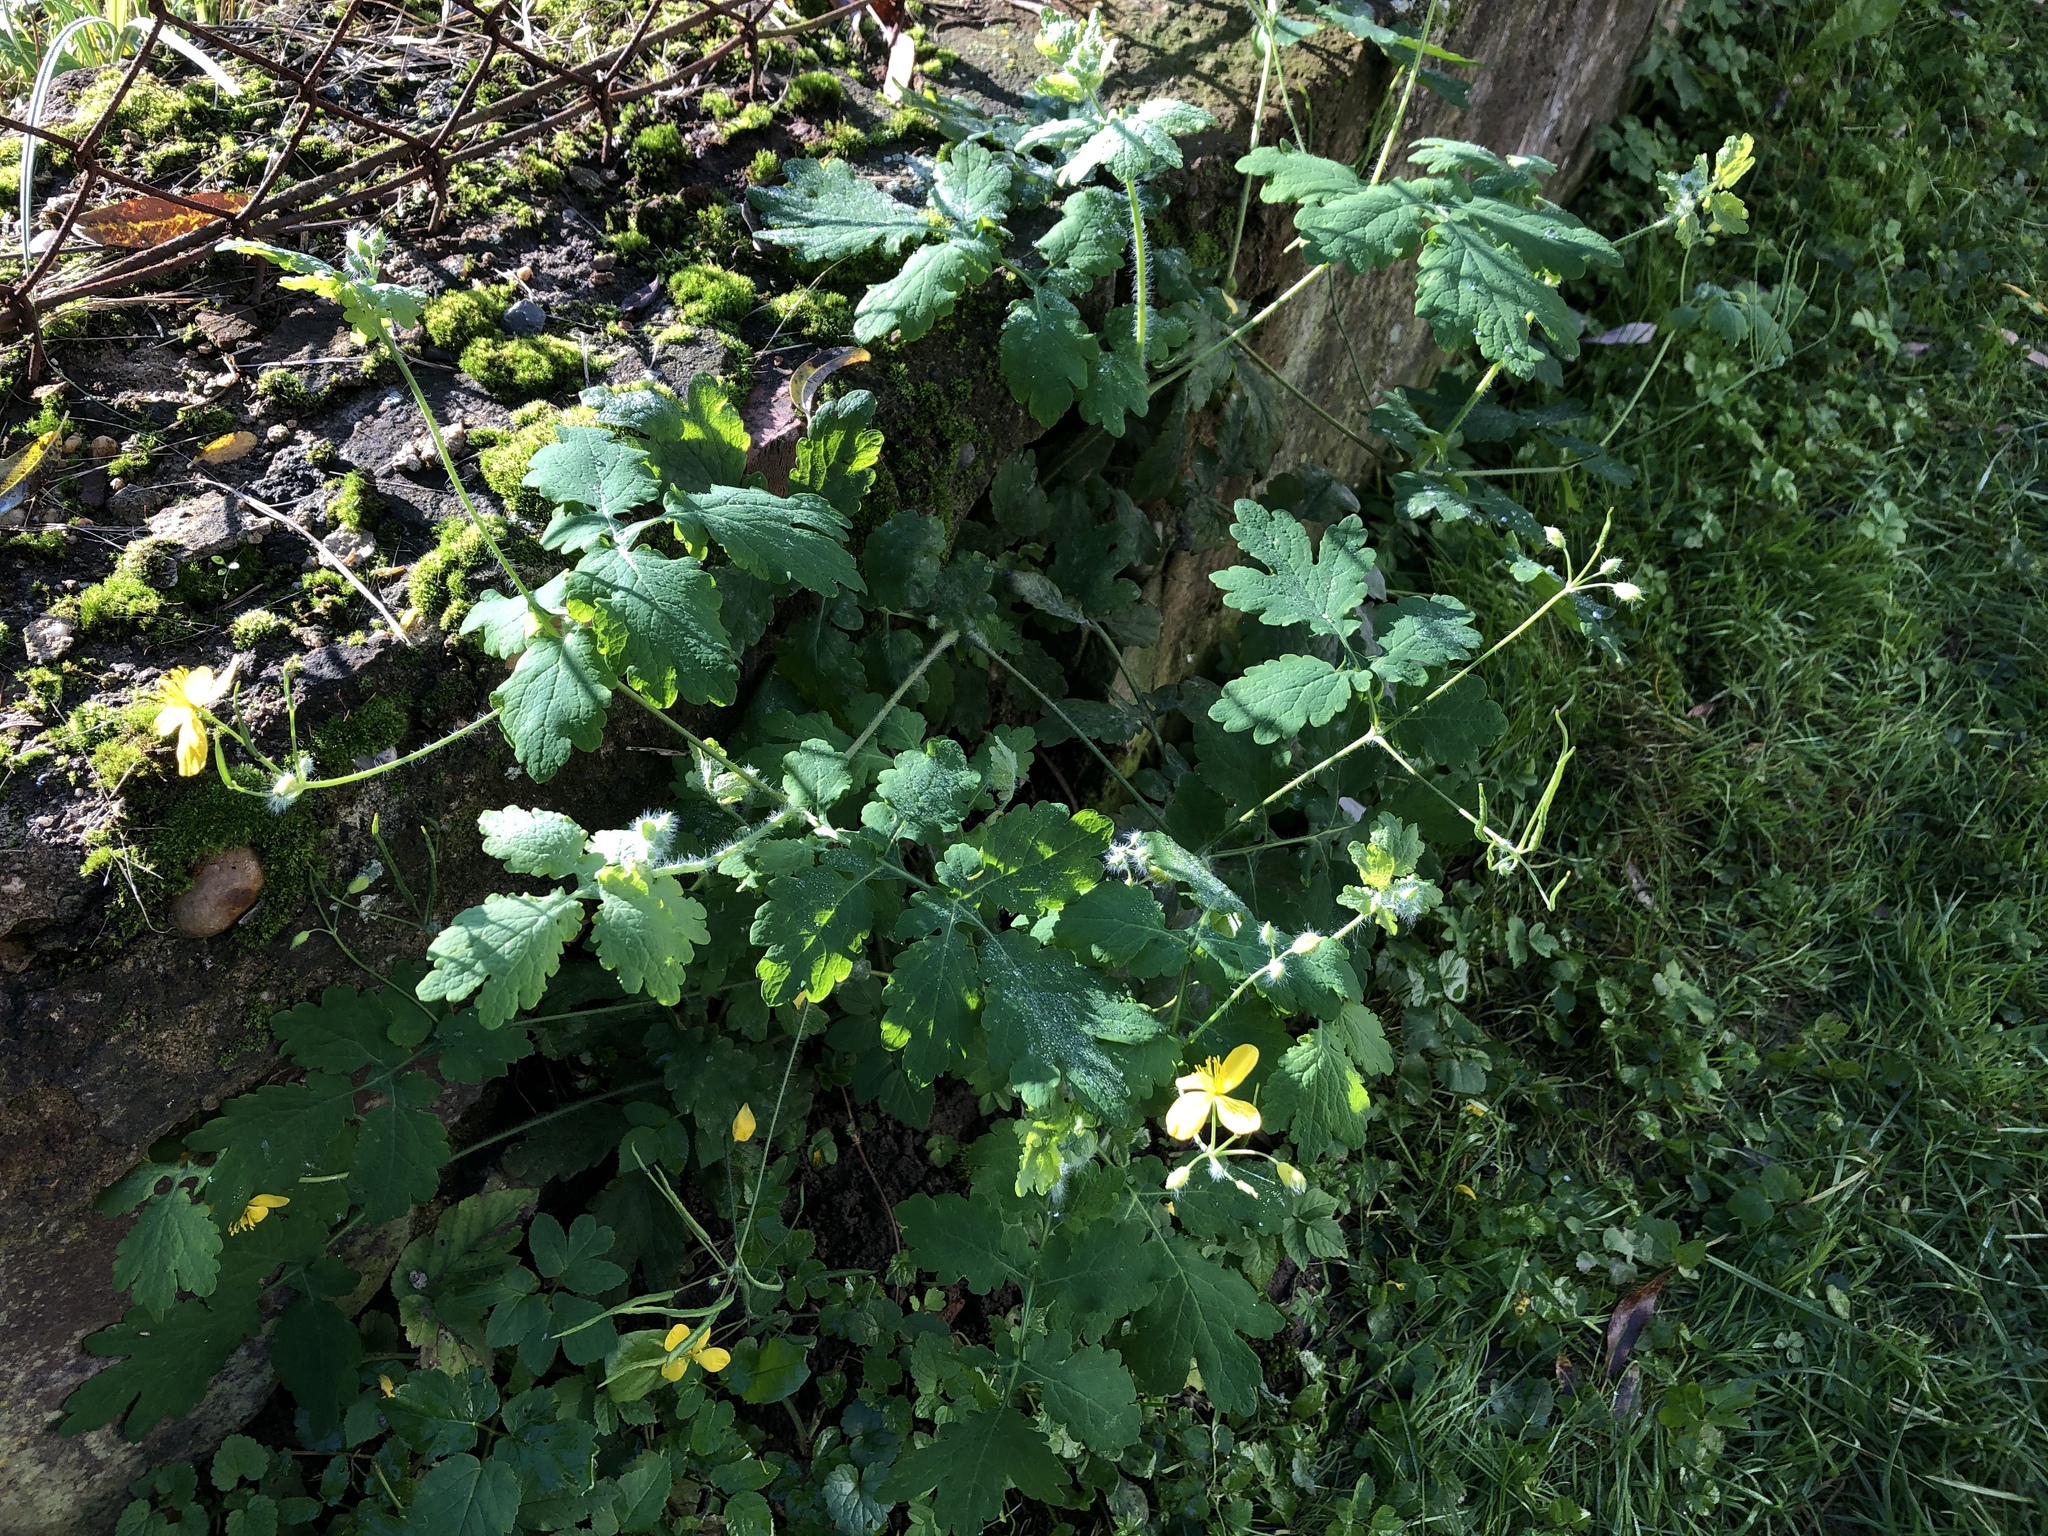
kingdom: Plantae
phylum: Tracheophyta
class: Magnoliopsida
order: Ranunculales
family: Papaveraceae
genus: Chelidonium
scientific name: Chelidonium majus
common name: Greater celandine
